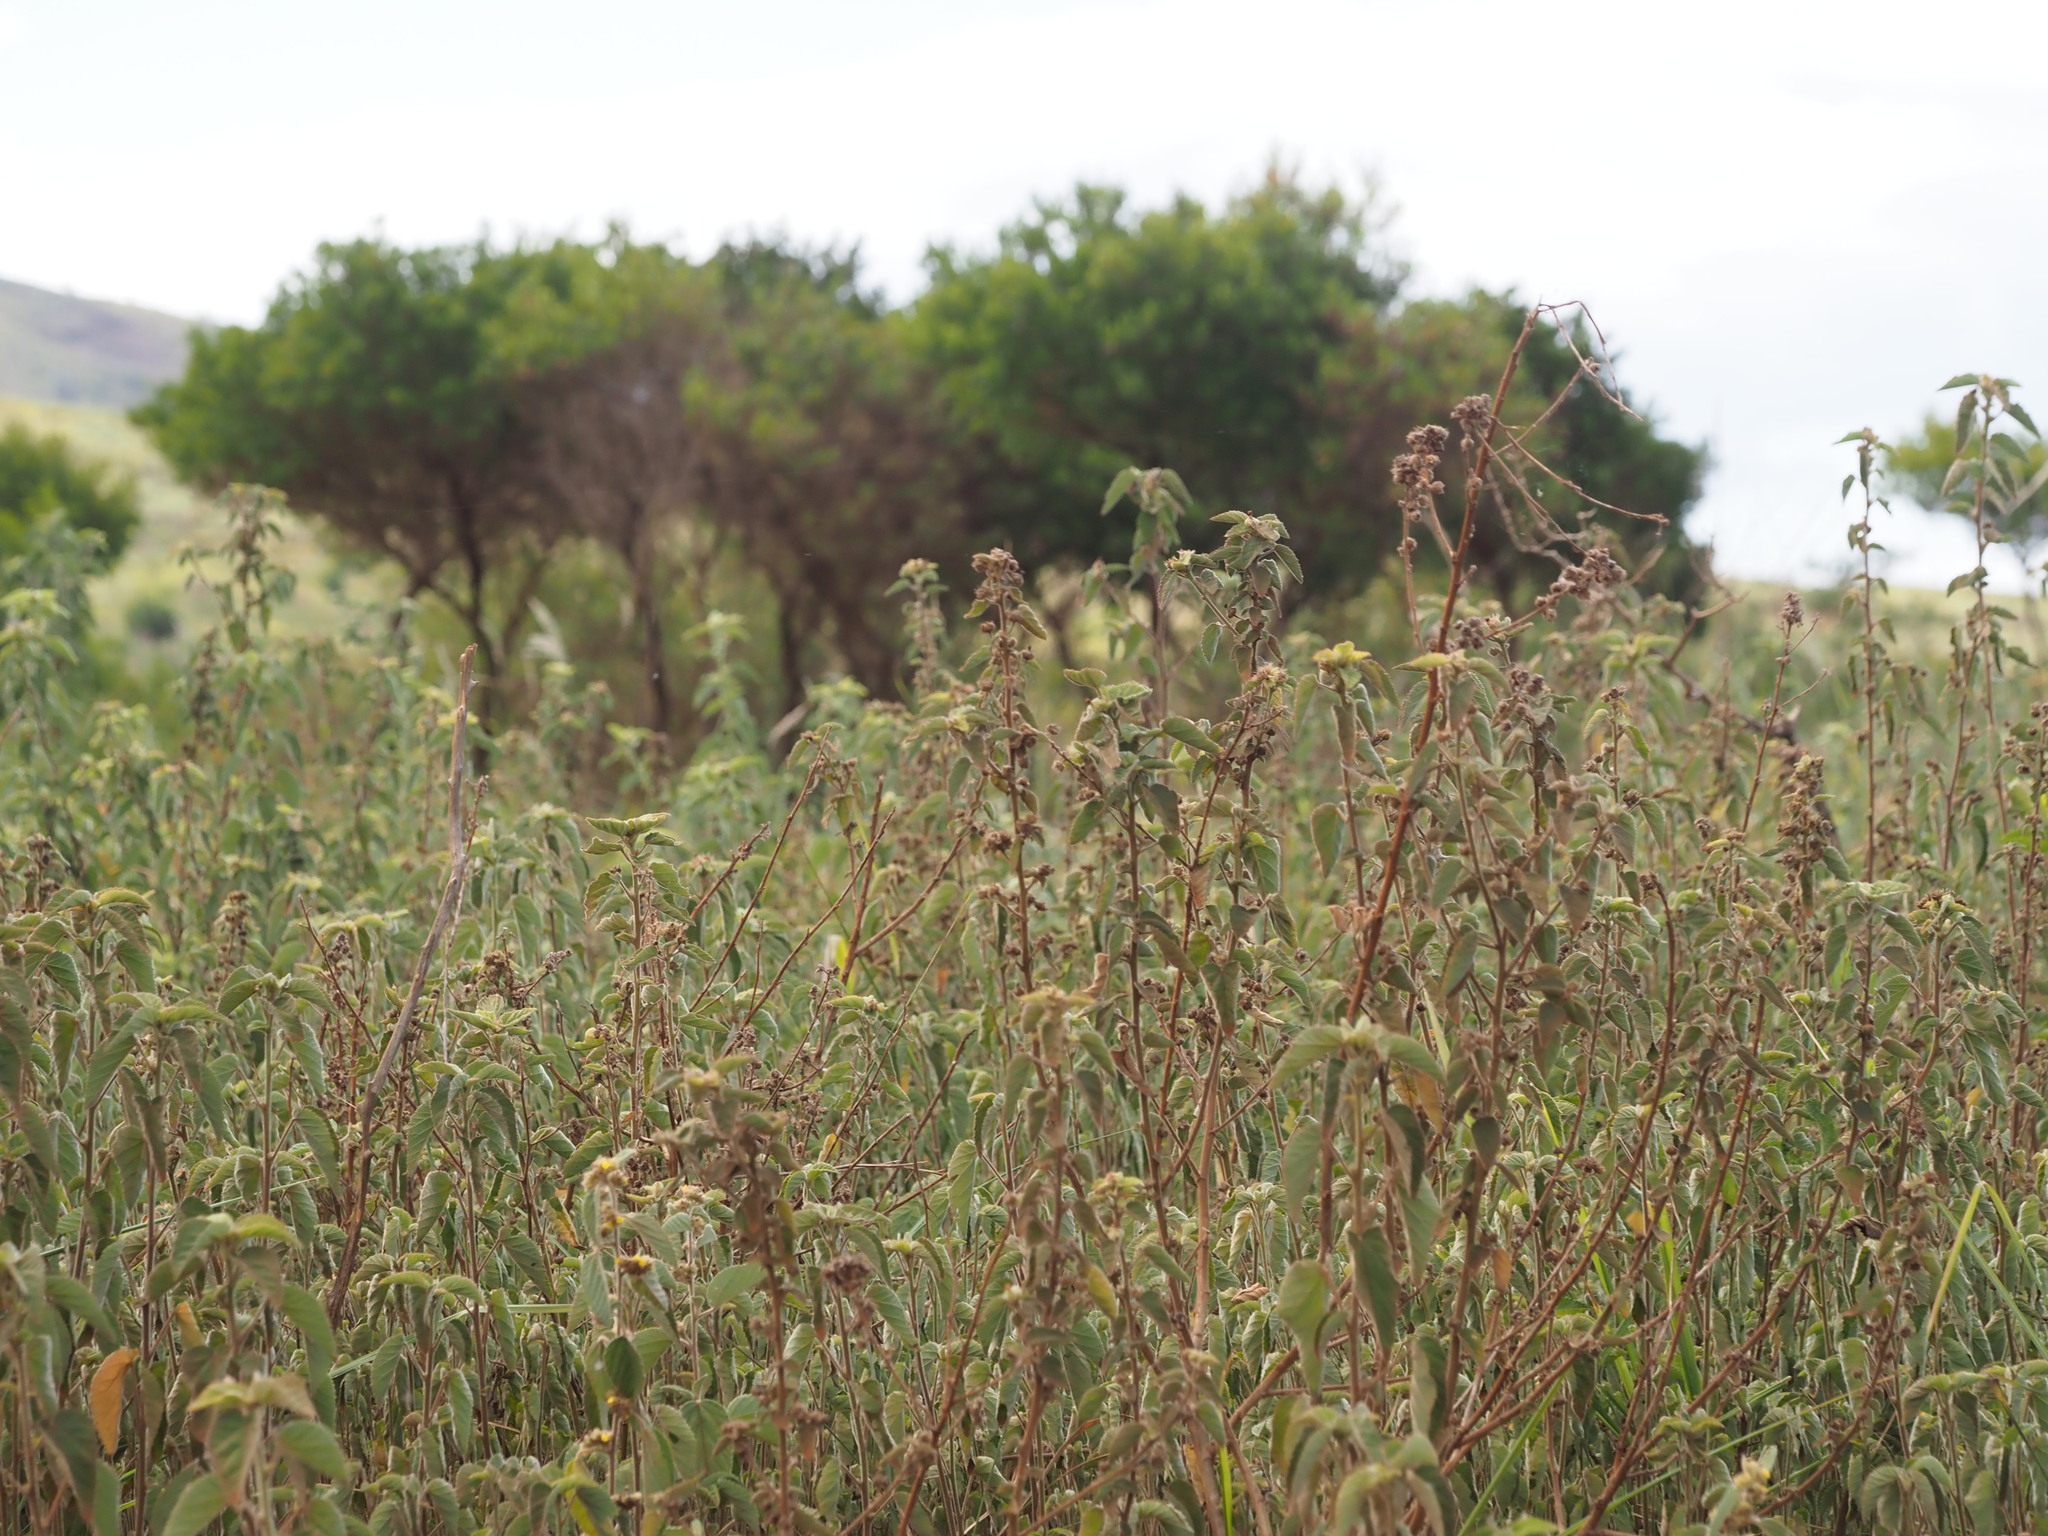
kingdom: Plantae
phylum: Tracheophyta
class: Magnoliopsida
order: Malvales
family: Malvaceae
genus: Sida
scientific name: Sida cordifolia
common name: Ilima
